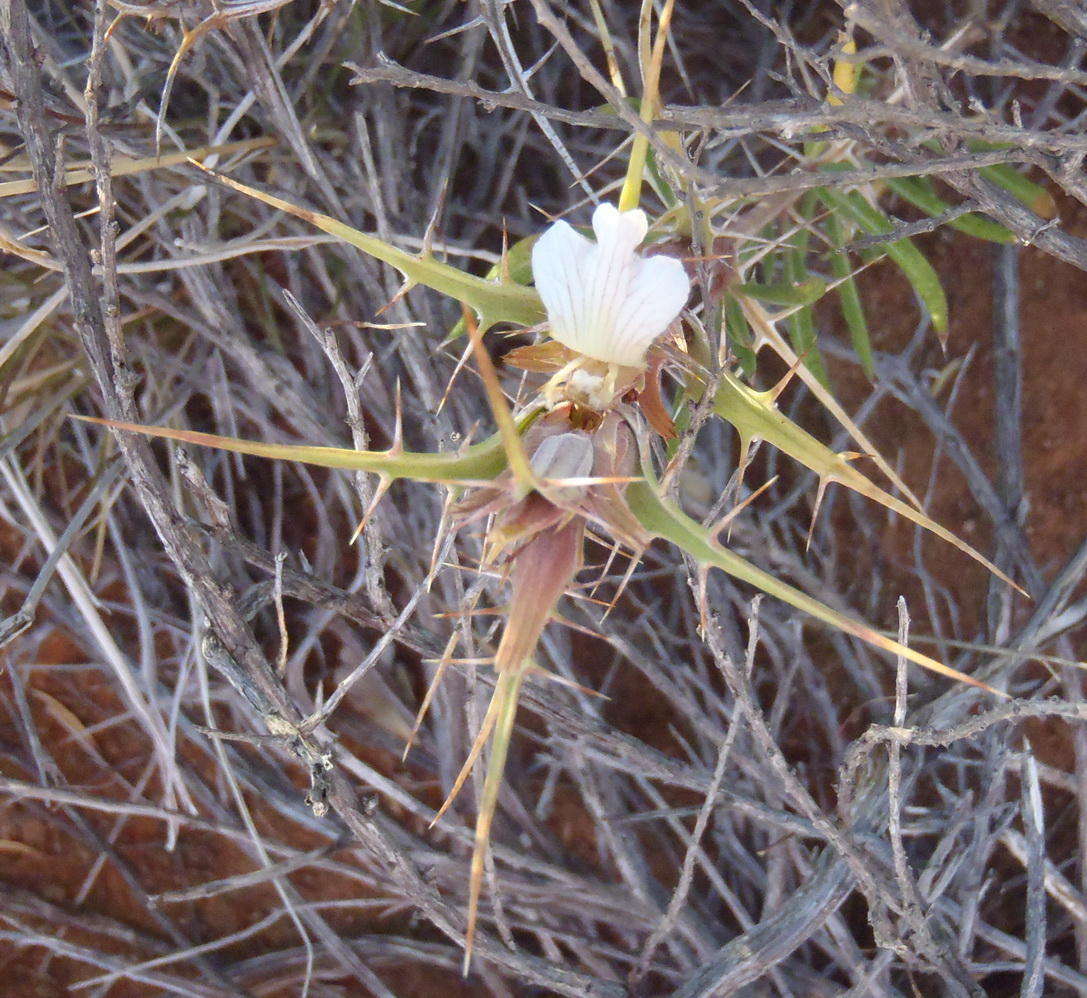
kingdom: Plantae
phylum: Tracheophyta
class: Magnoliopsida
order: Lamiales
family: Acanthaceae
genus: Blepharis
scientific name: Blepharis capensis
